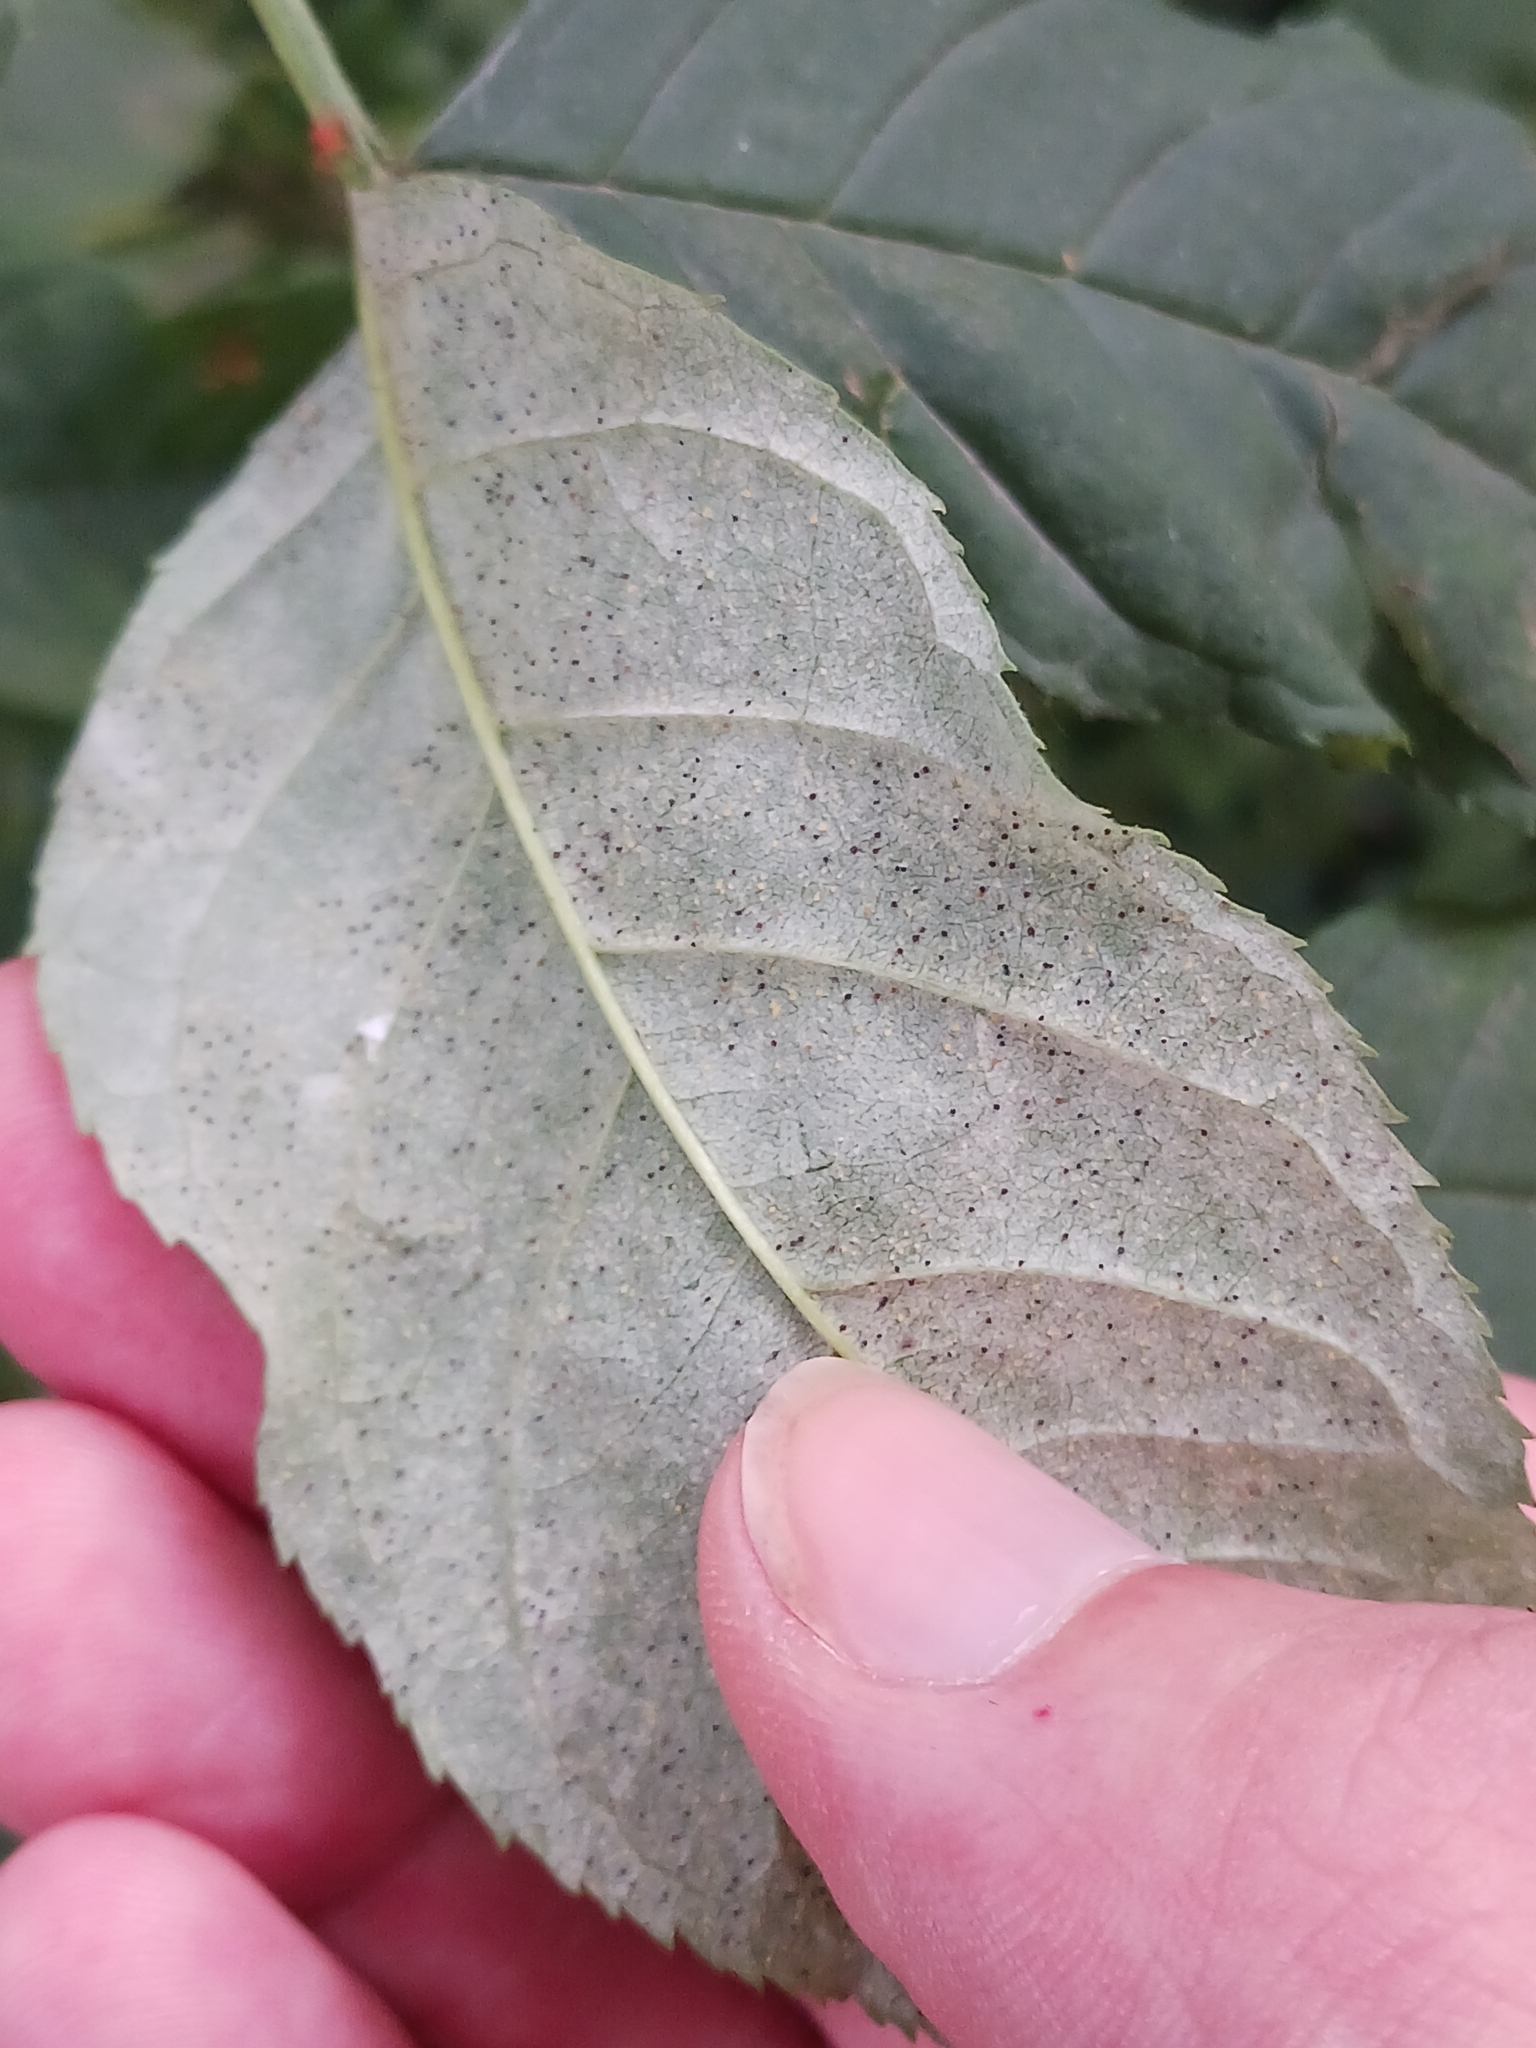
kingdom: Fungi
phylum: Ascomycota
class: Leotiomycetes
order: Helotiales
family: Erysiphaceae
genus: Phyllactinia
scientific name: Phyllactinia fraxini
